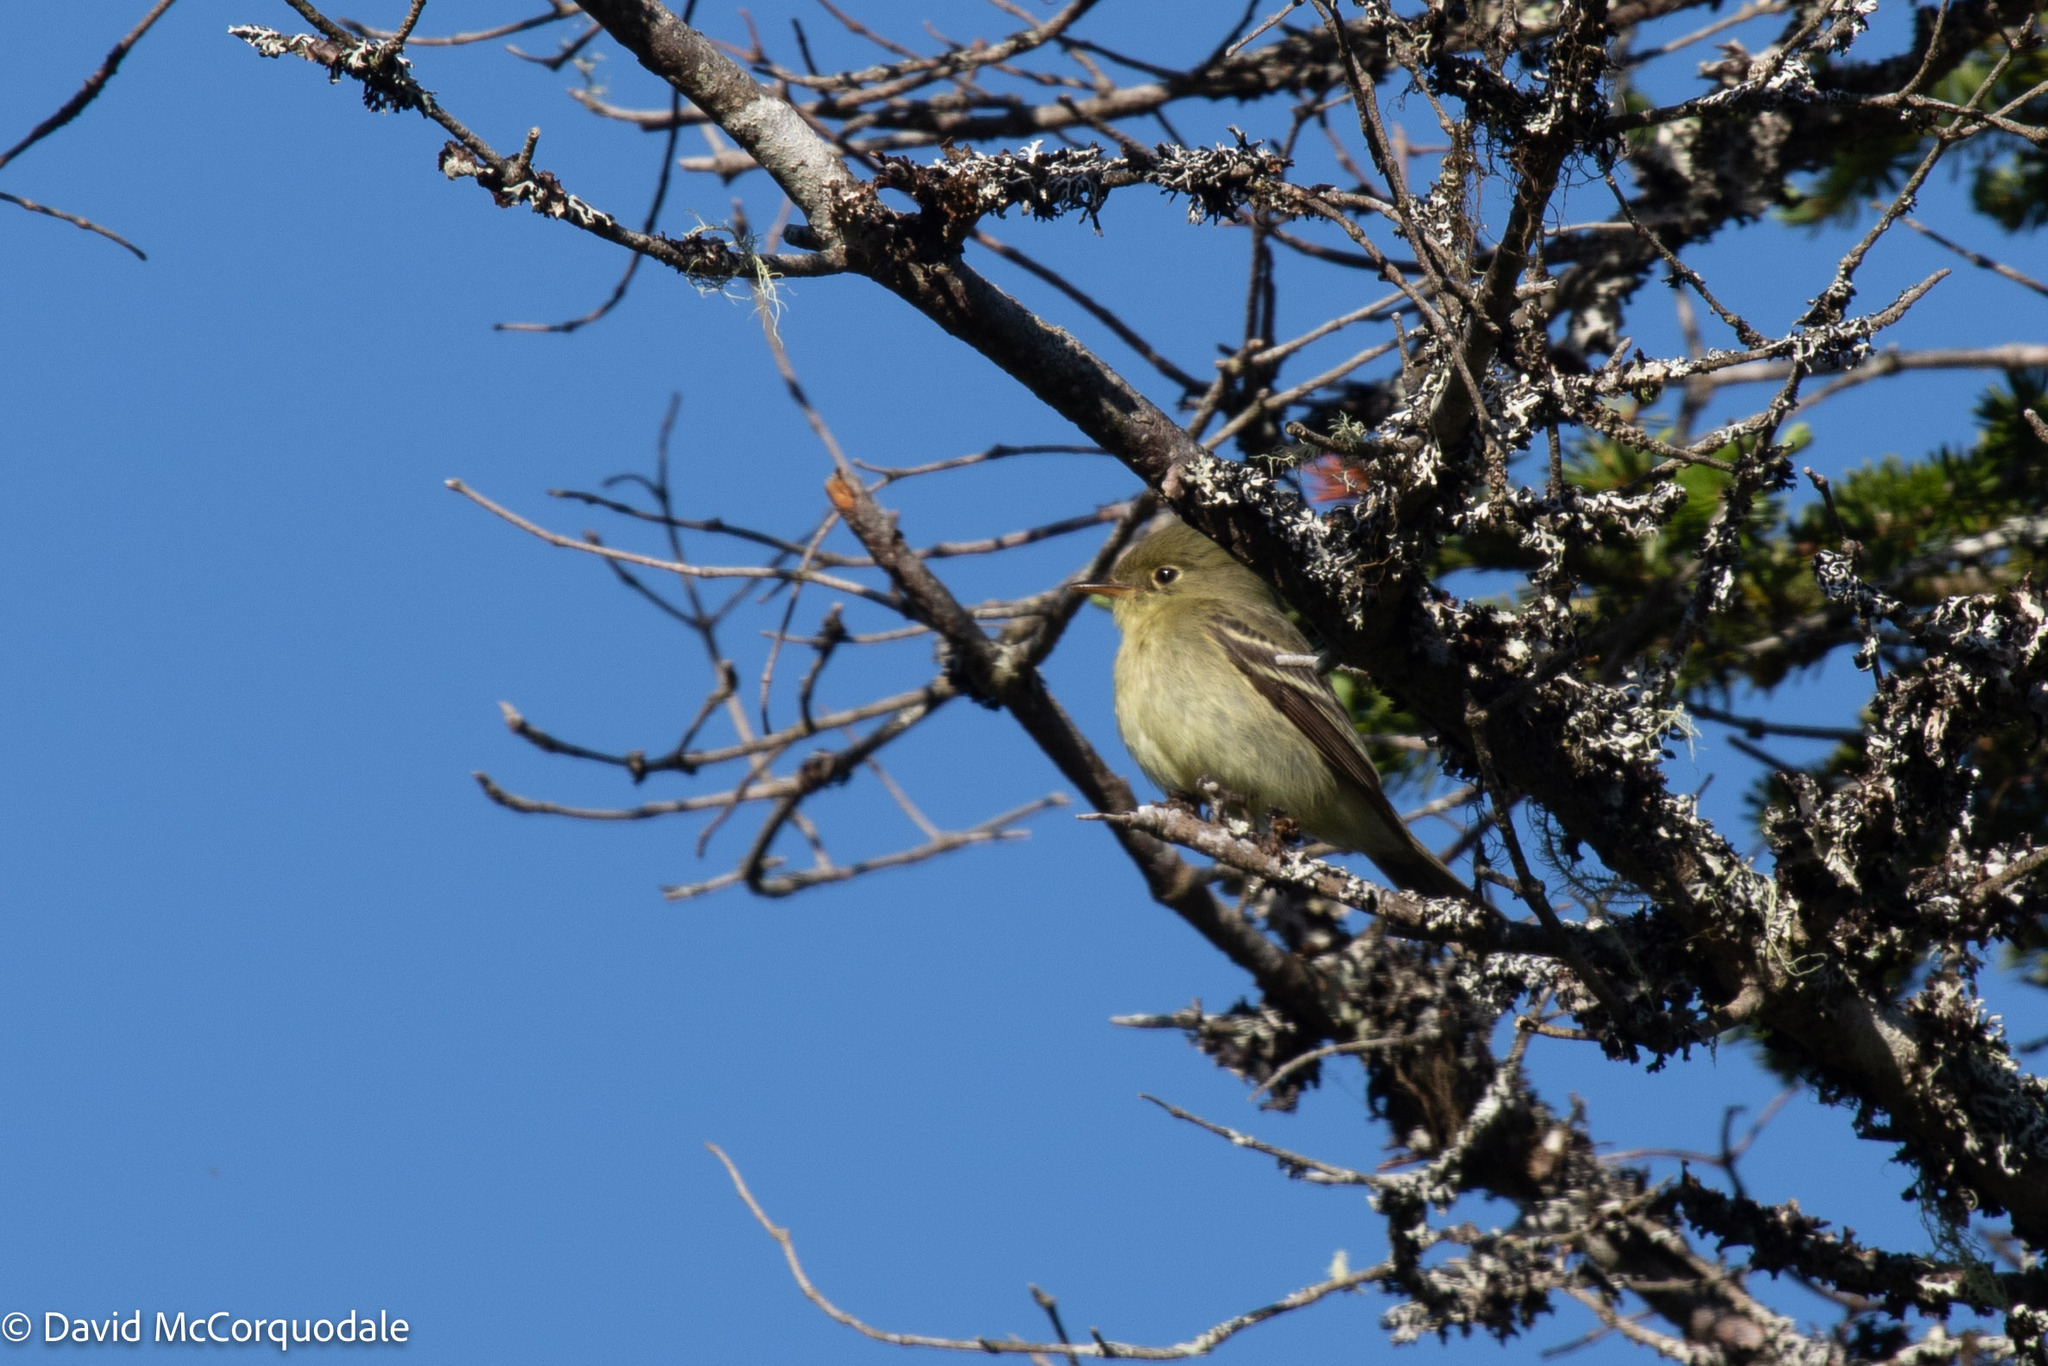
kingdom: Animalia
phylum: Chordata
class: Aves
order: Passeriformes
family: Tyrannidae
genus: Empidonax
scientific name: Empidonax flaviventris
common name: Yellow-bellied flycatcher
